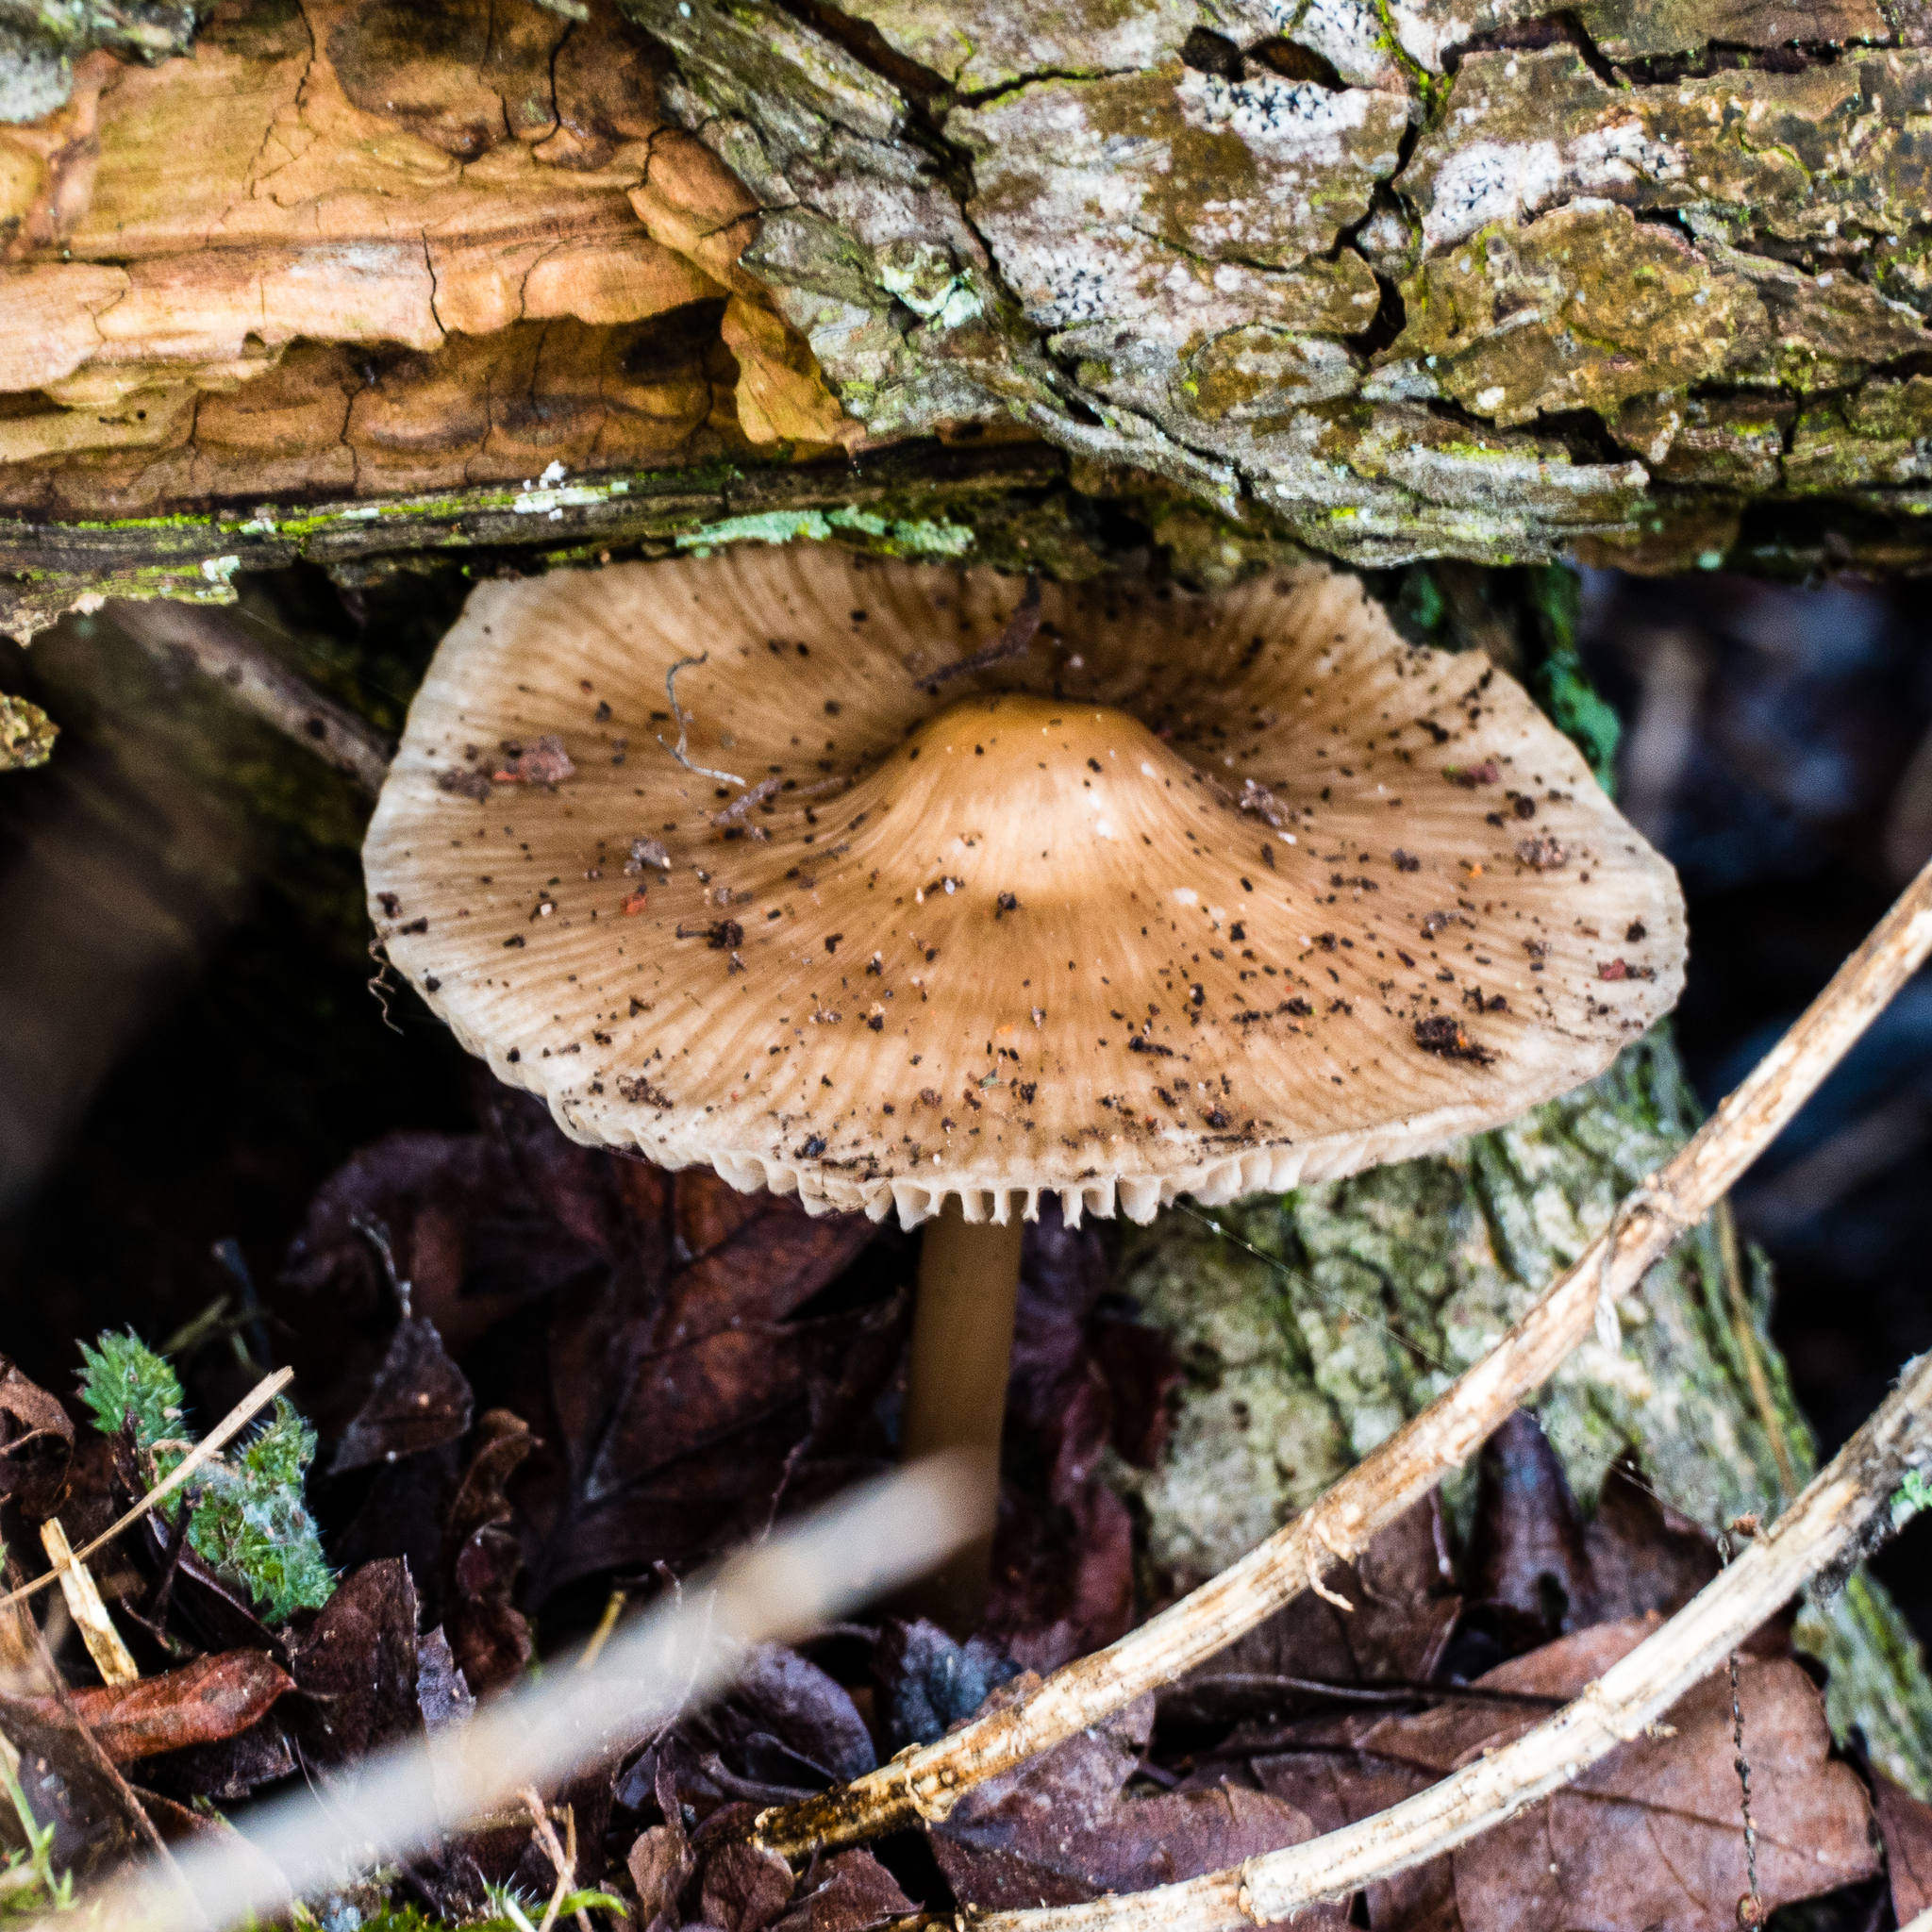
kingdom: Fungi
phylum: Basidiomycota
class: Agaricomycetes
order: Agaricales
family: Mycenaceae
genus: Mycena
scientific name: Mycena galericulata
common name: Bonnet mycena
